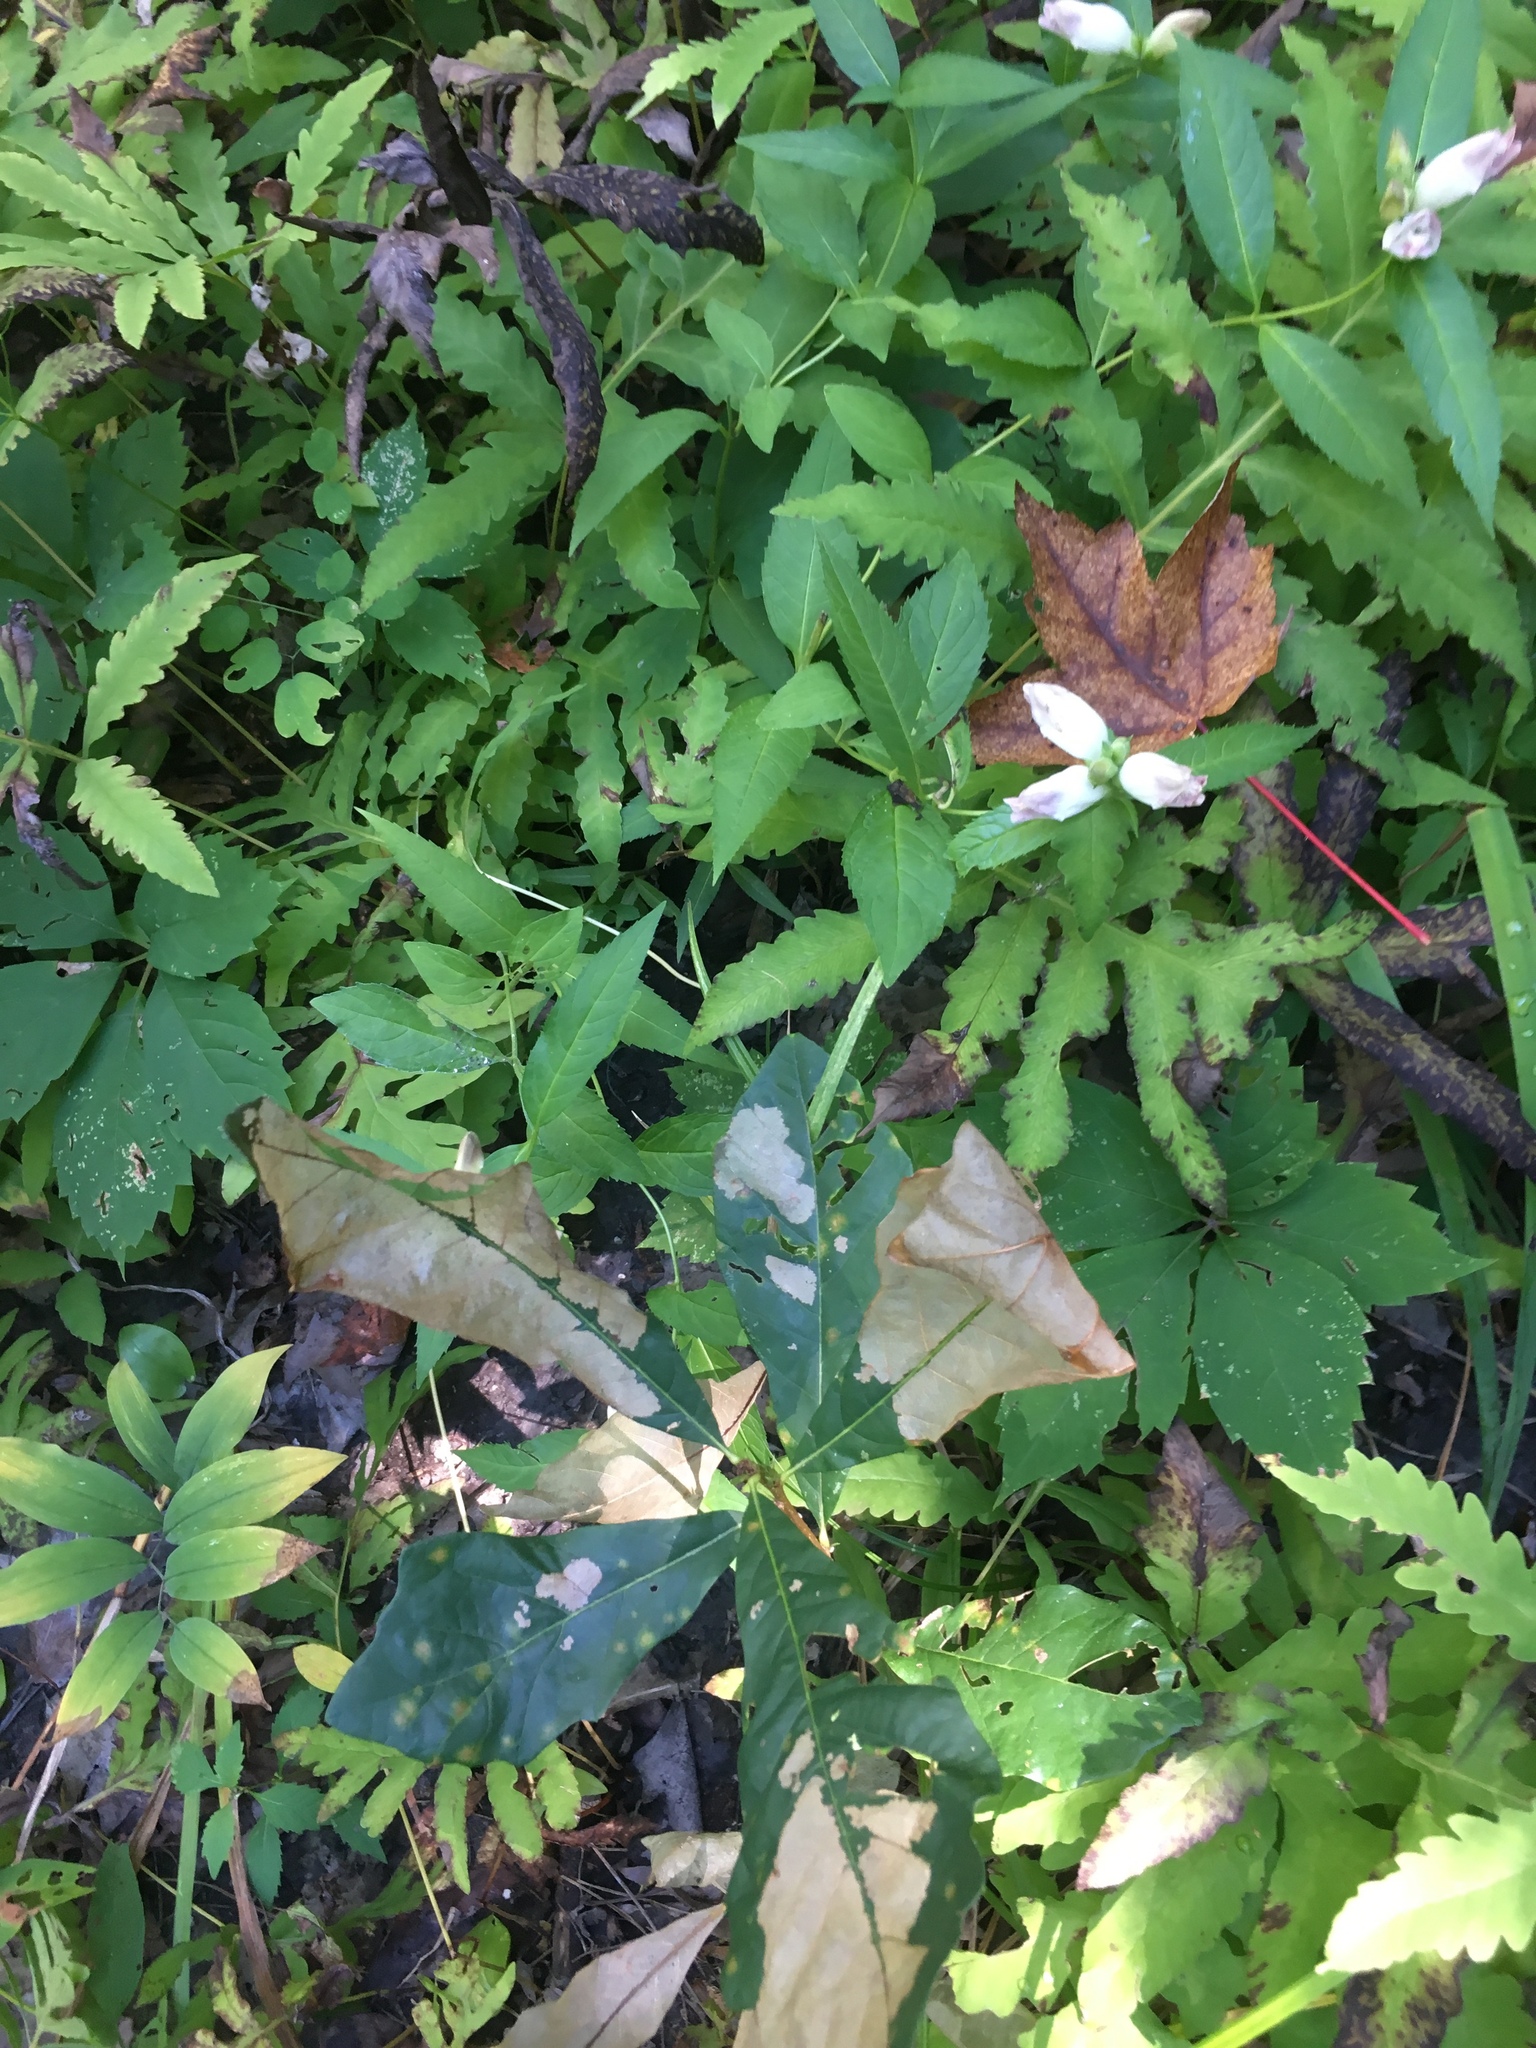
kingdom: Plantae
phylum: Tracheophyta
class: Magnoliopsida
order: Lamiales
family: Plantaginaceae
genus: Chelone
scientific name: Chelone glabra
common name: Snakehead
